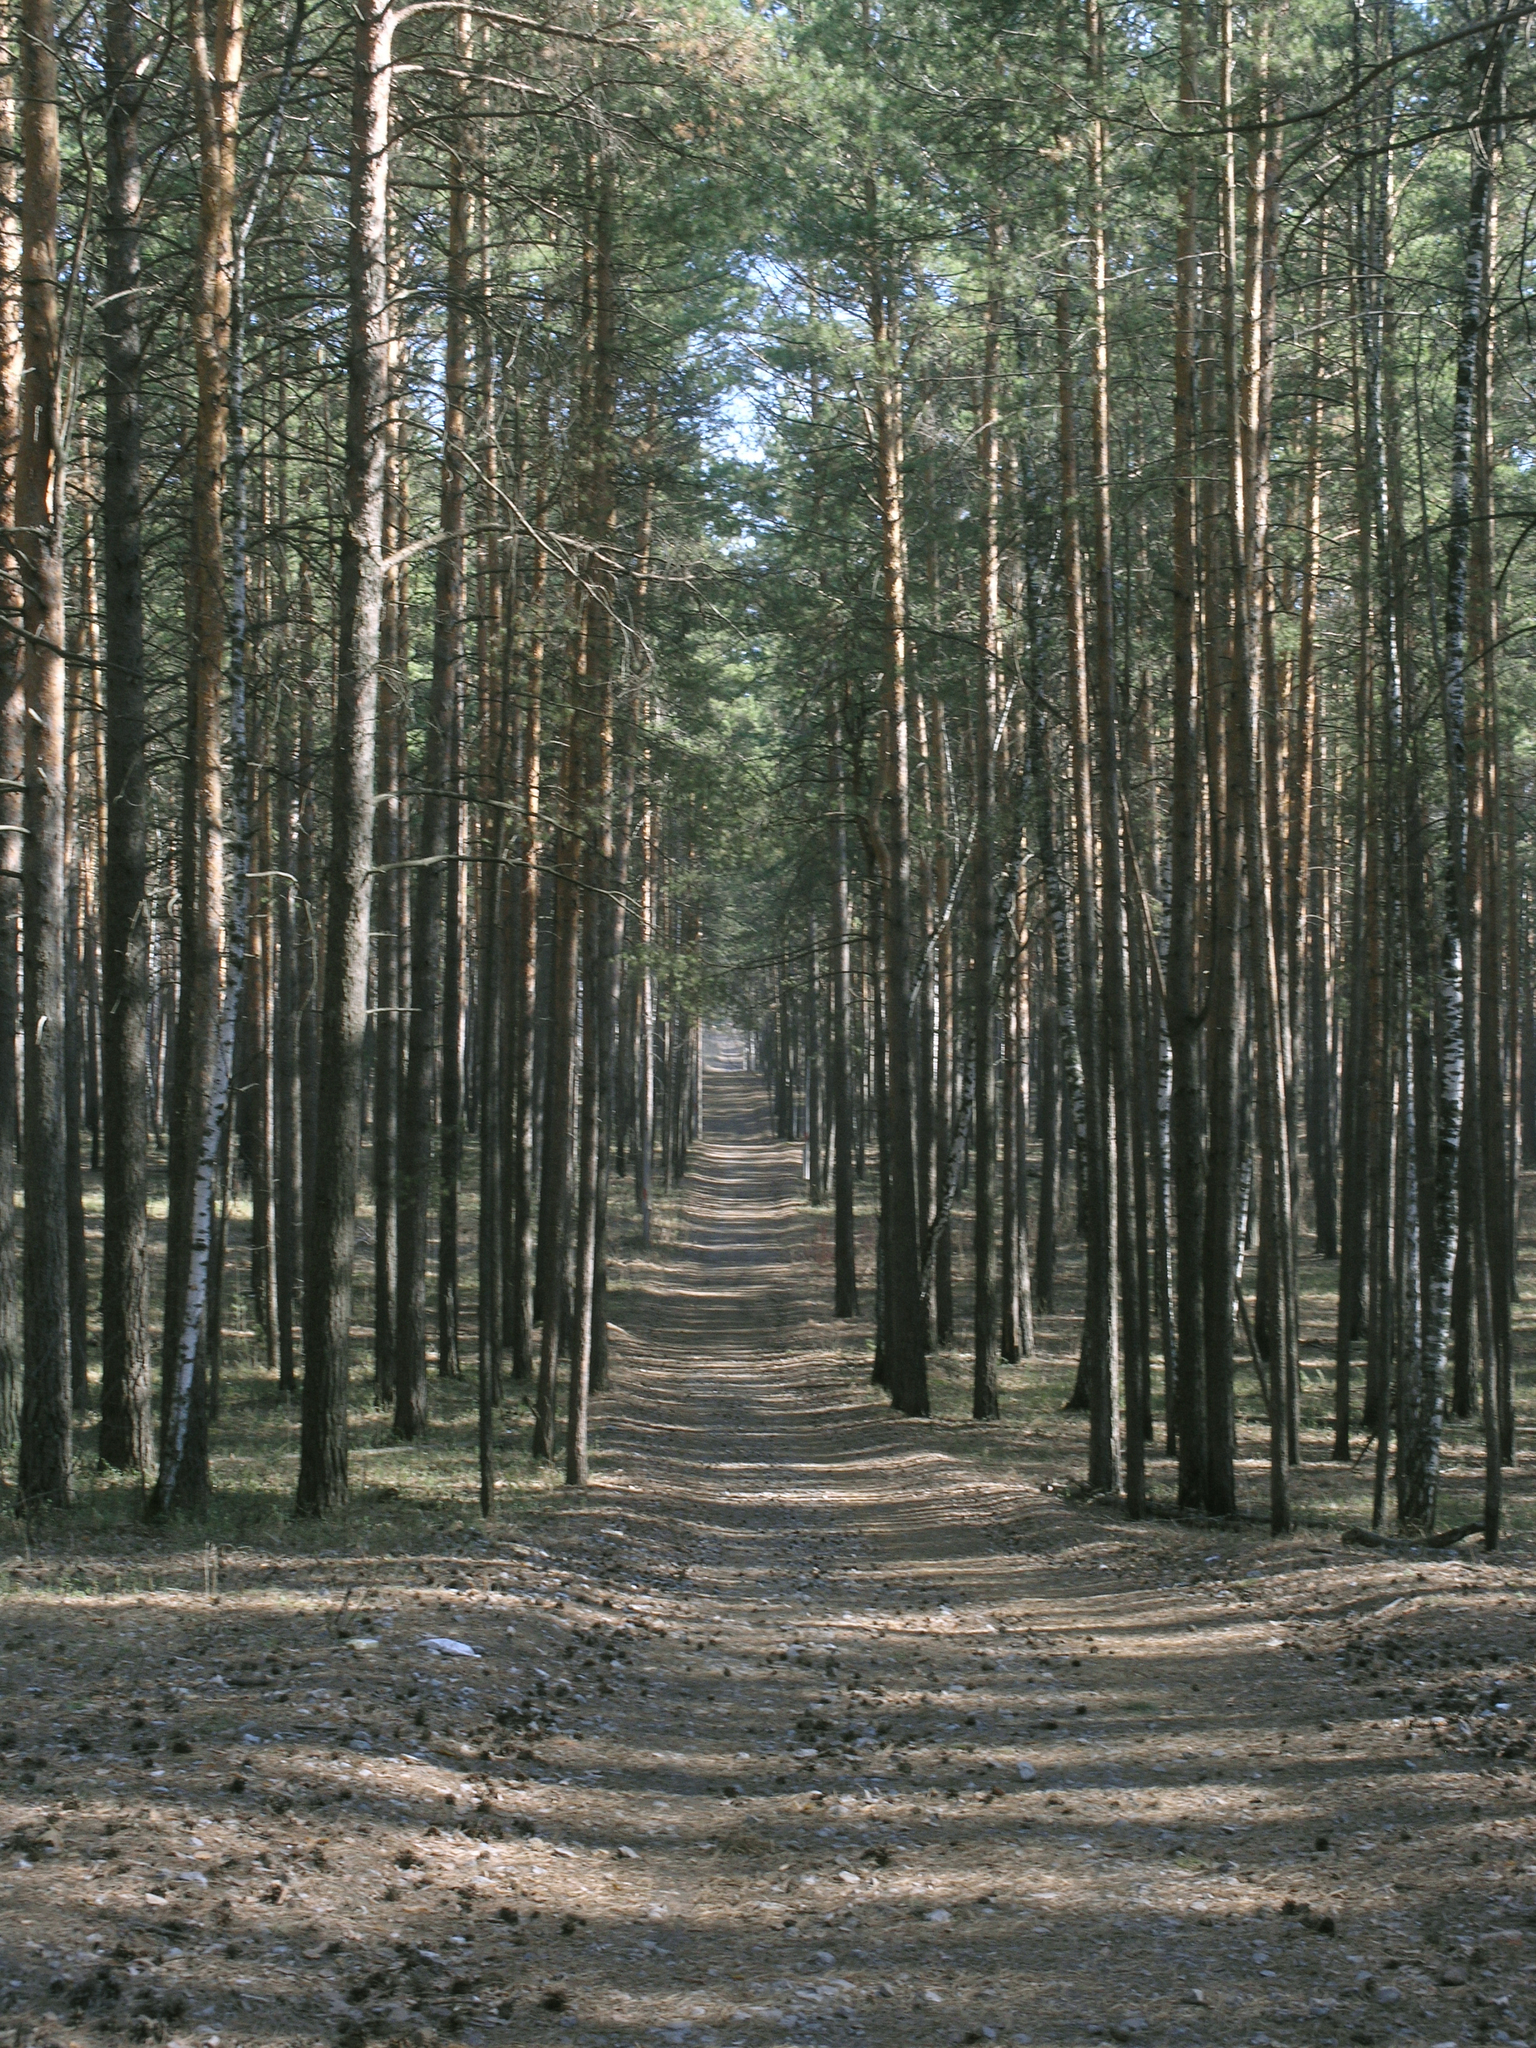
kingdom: Plantae
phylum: Tracheophyta
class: Pinopsida
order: Pinales
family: Pinaceae
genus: Pinus
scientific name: Pinus sylvestris
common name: Scots pine
